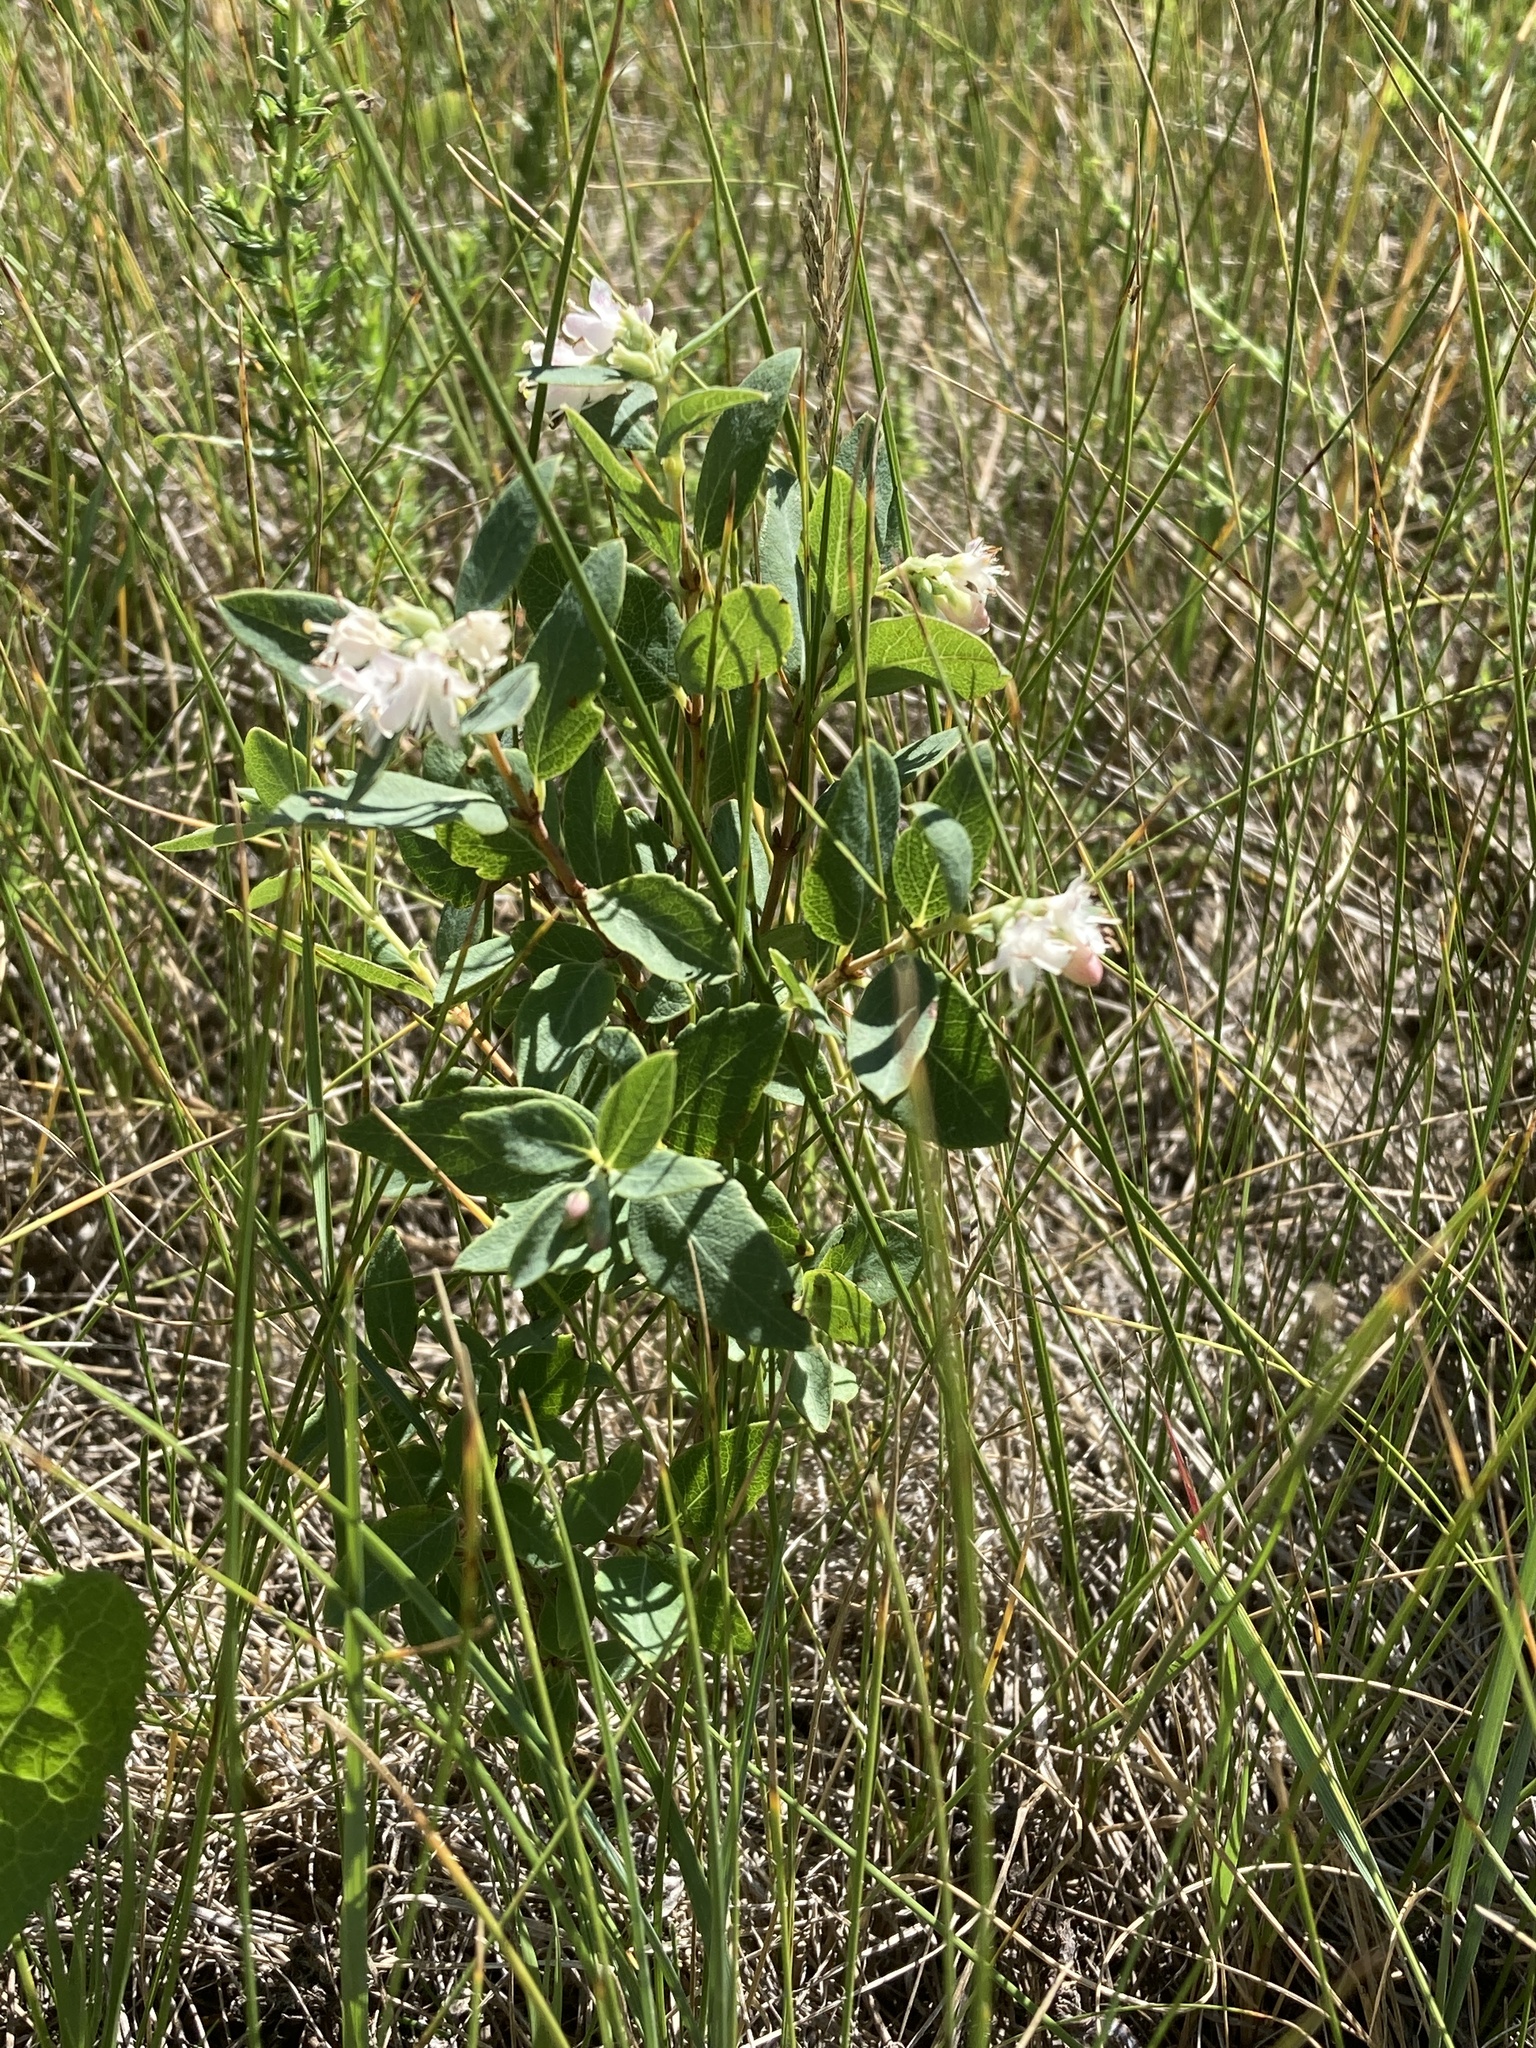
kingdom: Plantae
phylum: Tracheophyta
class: Magnoliopsida
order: Dipsacales
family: Caprifoliaceae
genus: Symphoricarpos
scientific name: Symphoricarpos occidentalis
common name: Wolfberry
